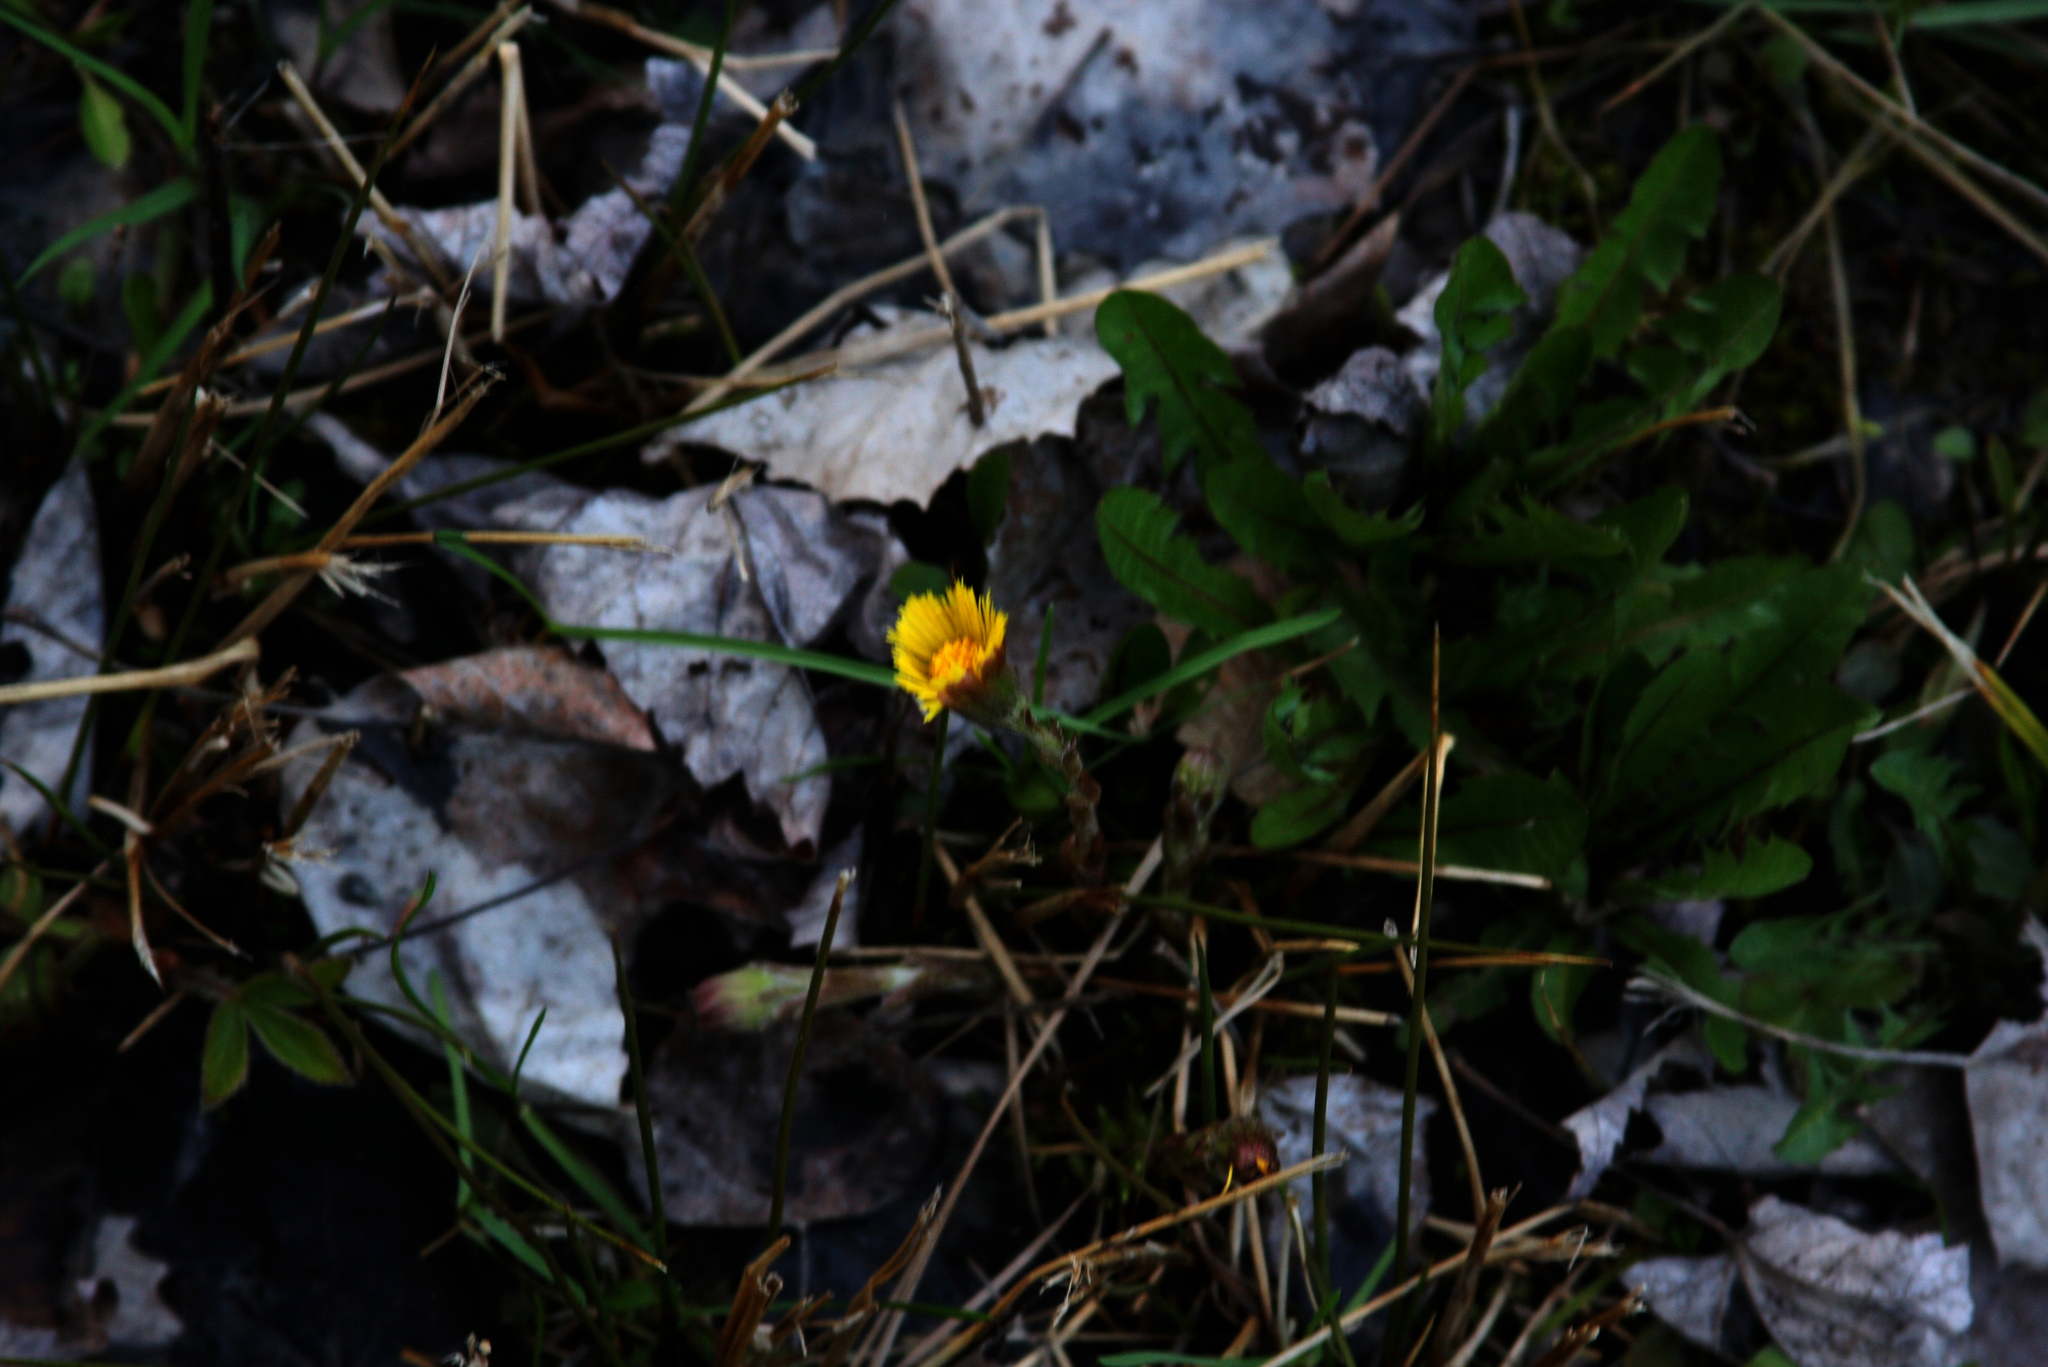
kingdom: Plantae
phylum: Tracheophyta
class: Magnoliopsida
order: Asterales
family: Asteraceae
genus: Taraxacum
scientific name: Taraxacum officinale
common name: Common dandelion
